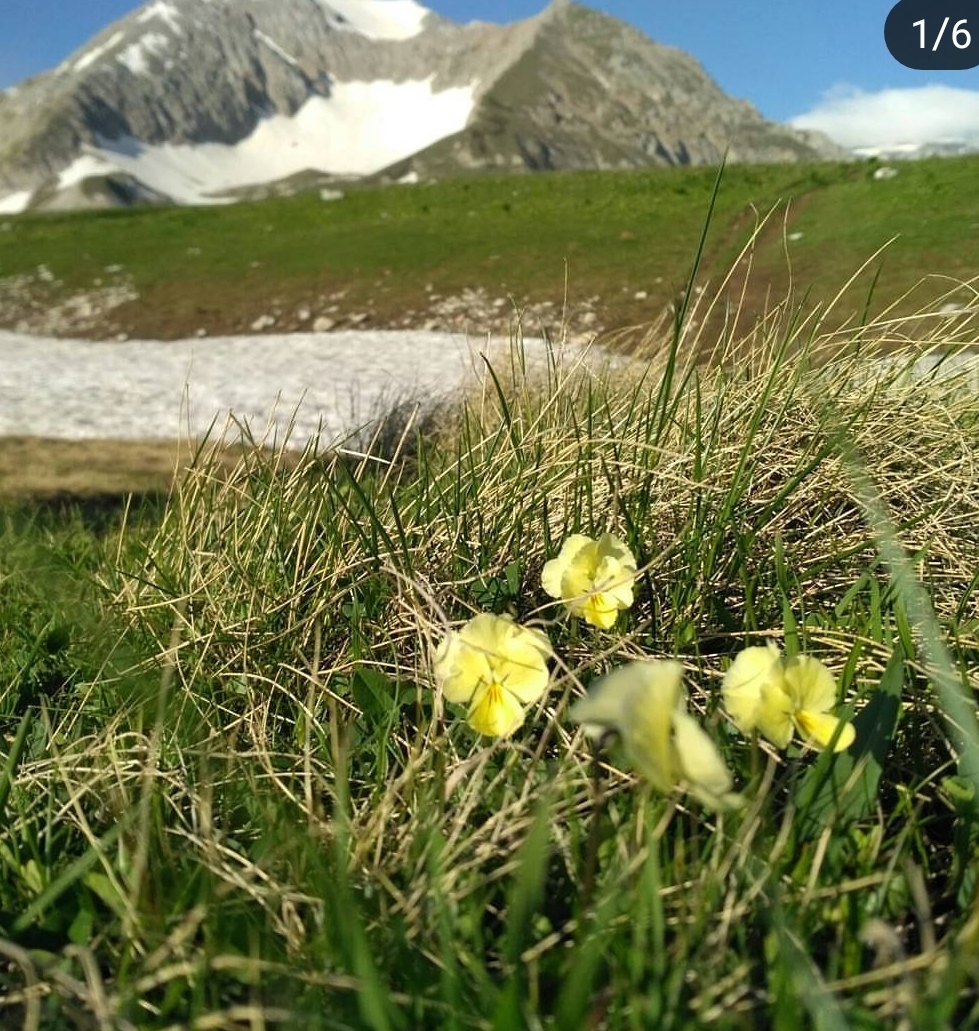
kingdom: Plantae
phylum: Tracheophyta
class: Magnoliopsida
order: Malpighiales
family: Violaceae
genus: Viola
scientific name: Viola oreades
